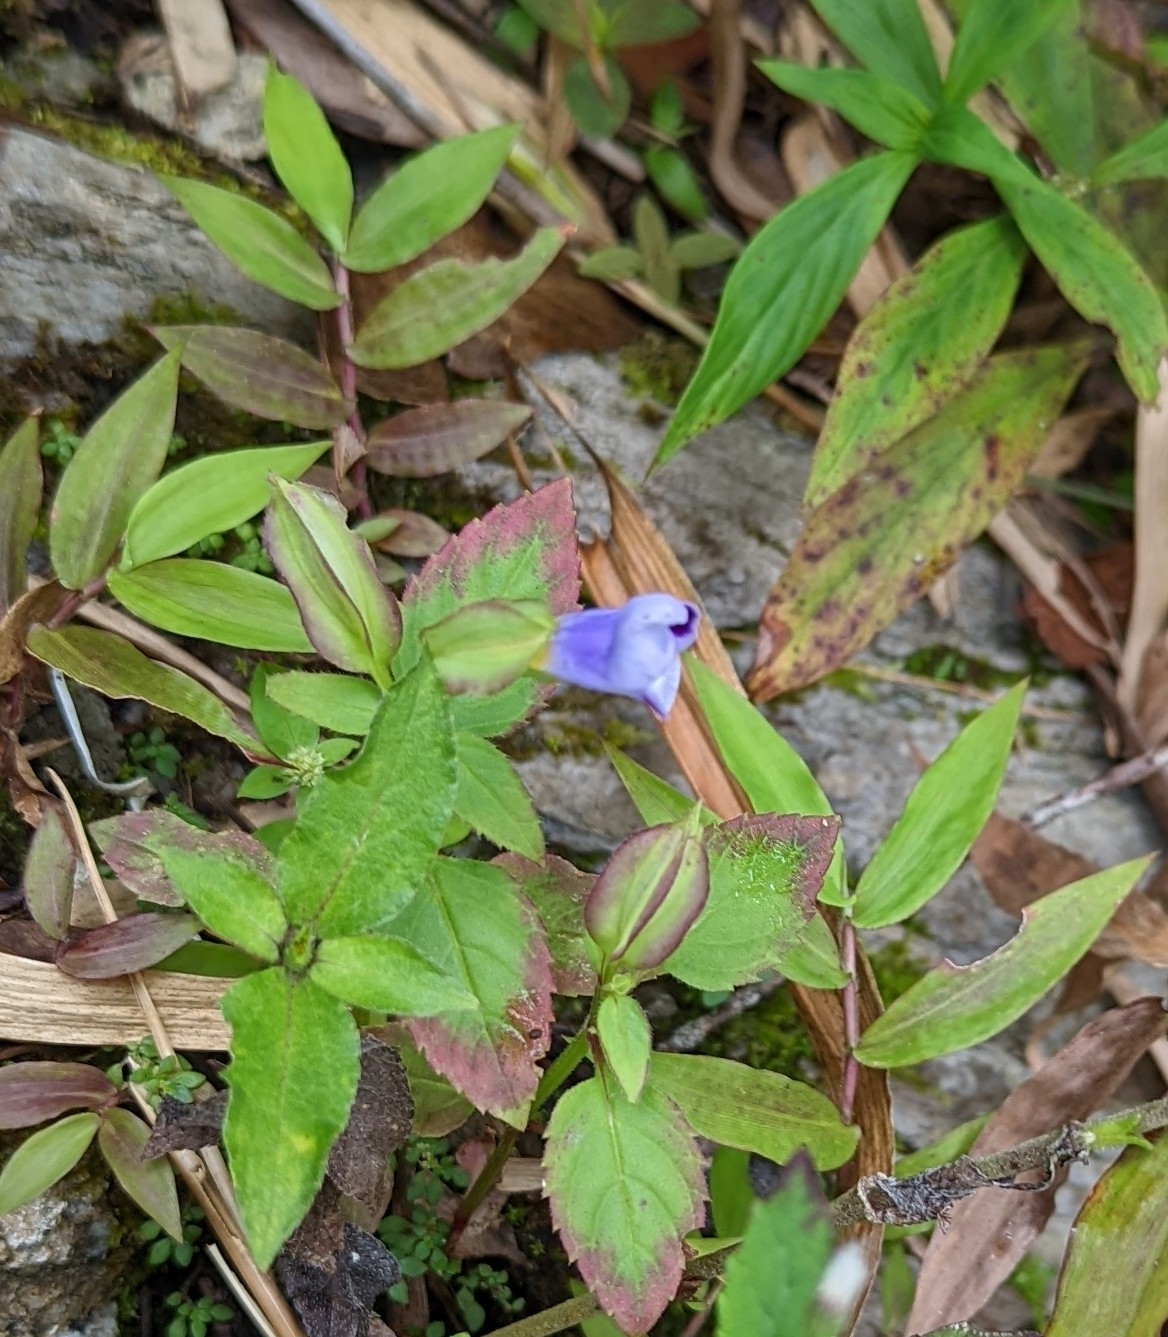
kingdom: Plantae
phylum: Tracheophyta
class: Magnoliopsida
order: Lamiales
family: Linderniaceae
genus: Torenia
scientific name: Torenia fournieri
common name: Bluewings
